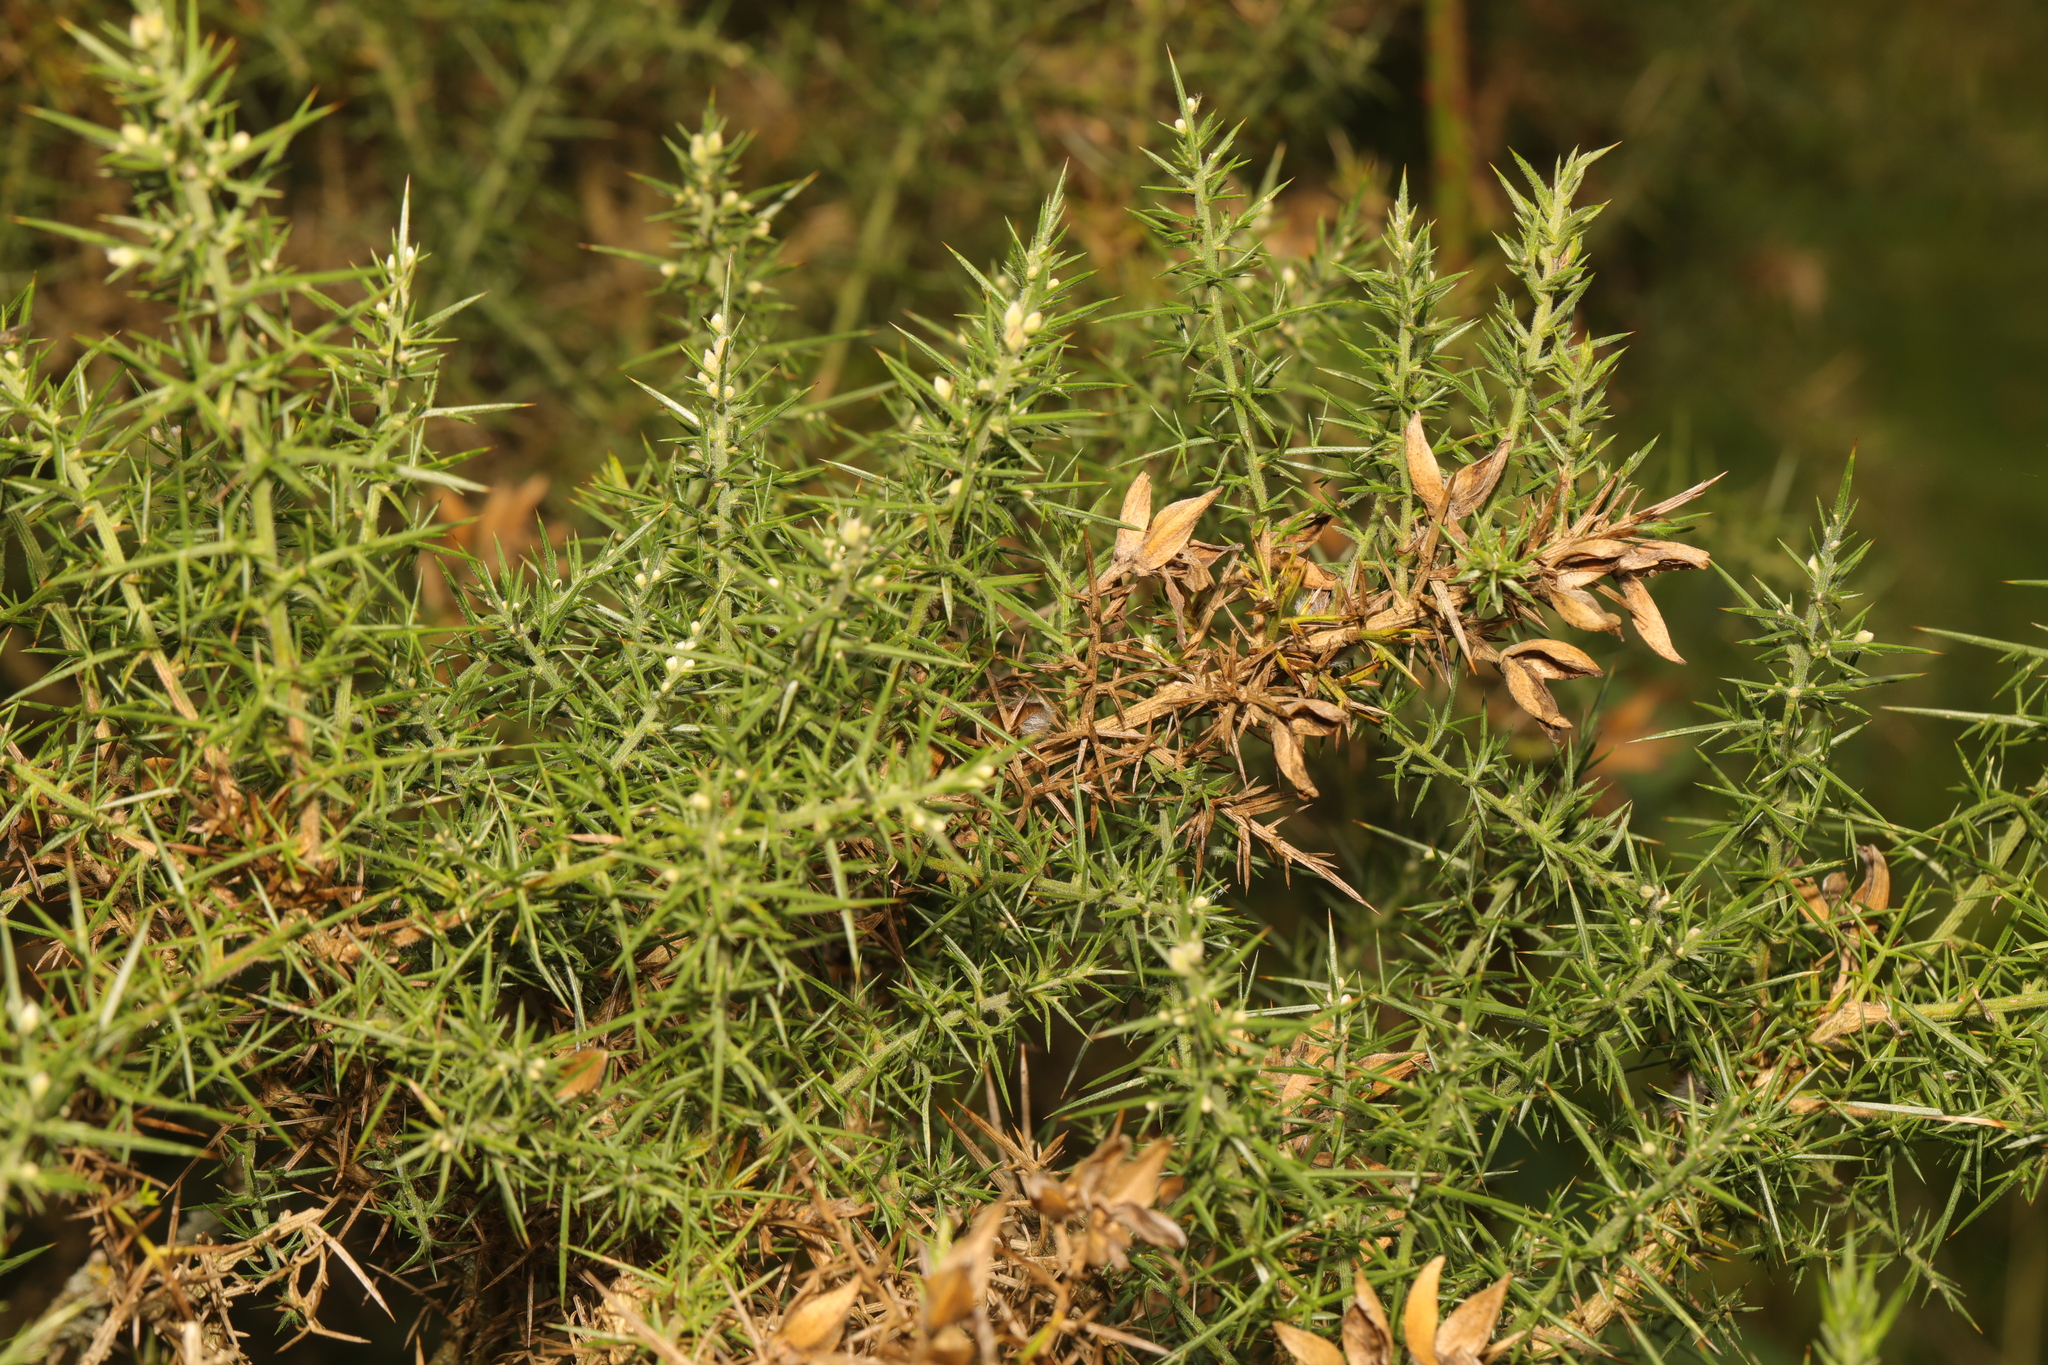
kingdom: Plantae
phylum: Tracheophyta
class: Magnoliopsida
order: Fabales
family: Fabaceae
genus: Ulex
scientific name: Ulex europaeus
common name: Common gorse
